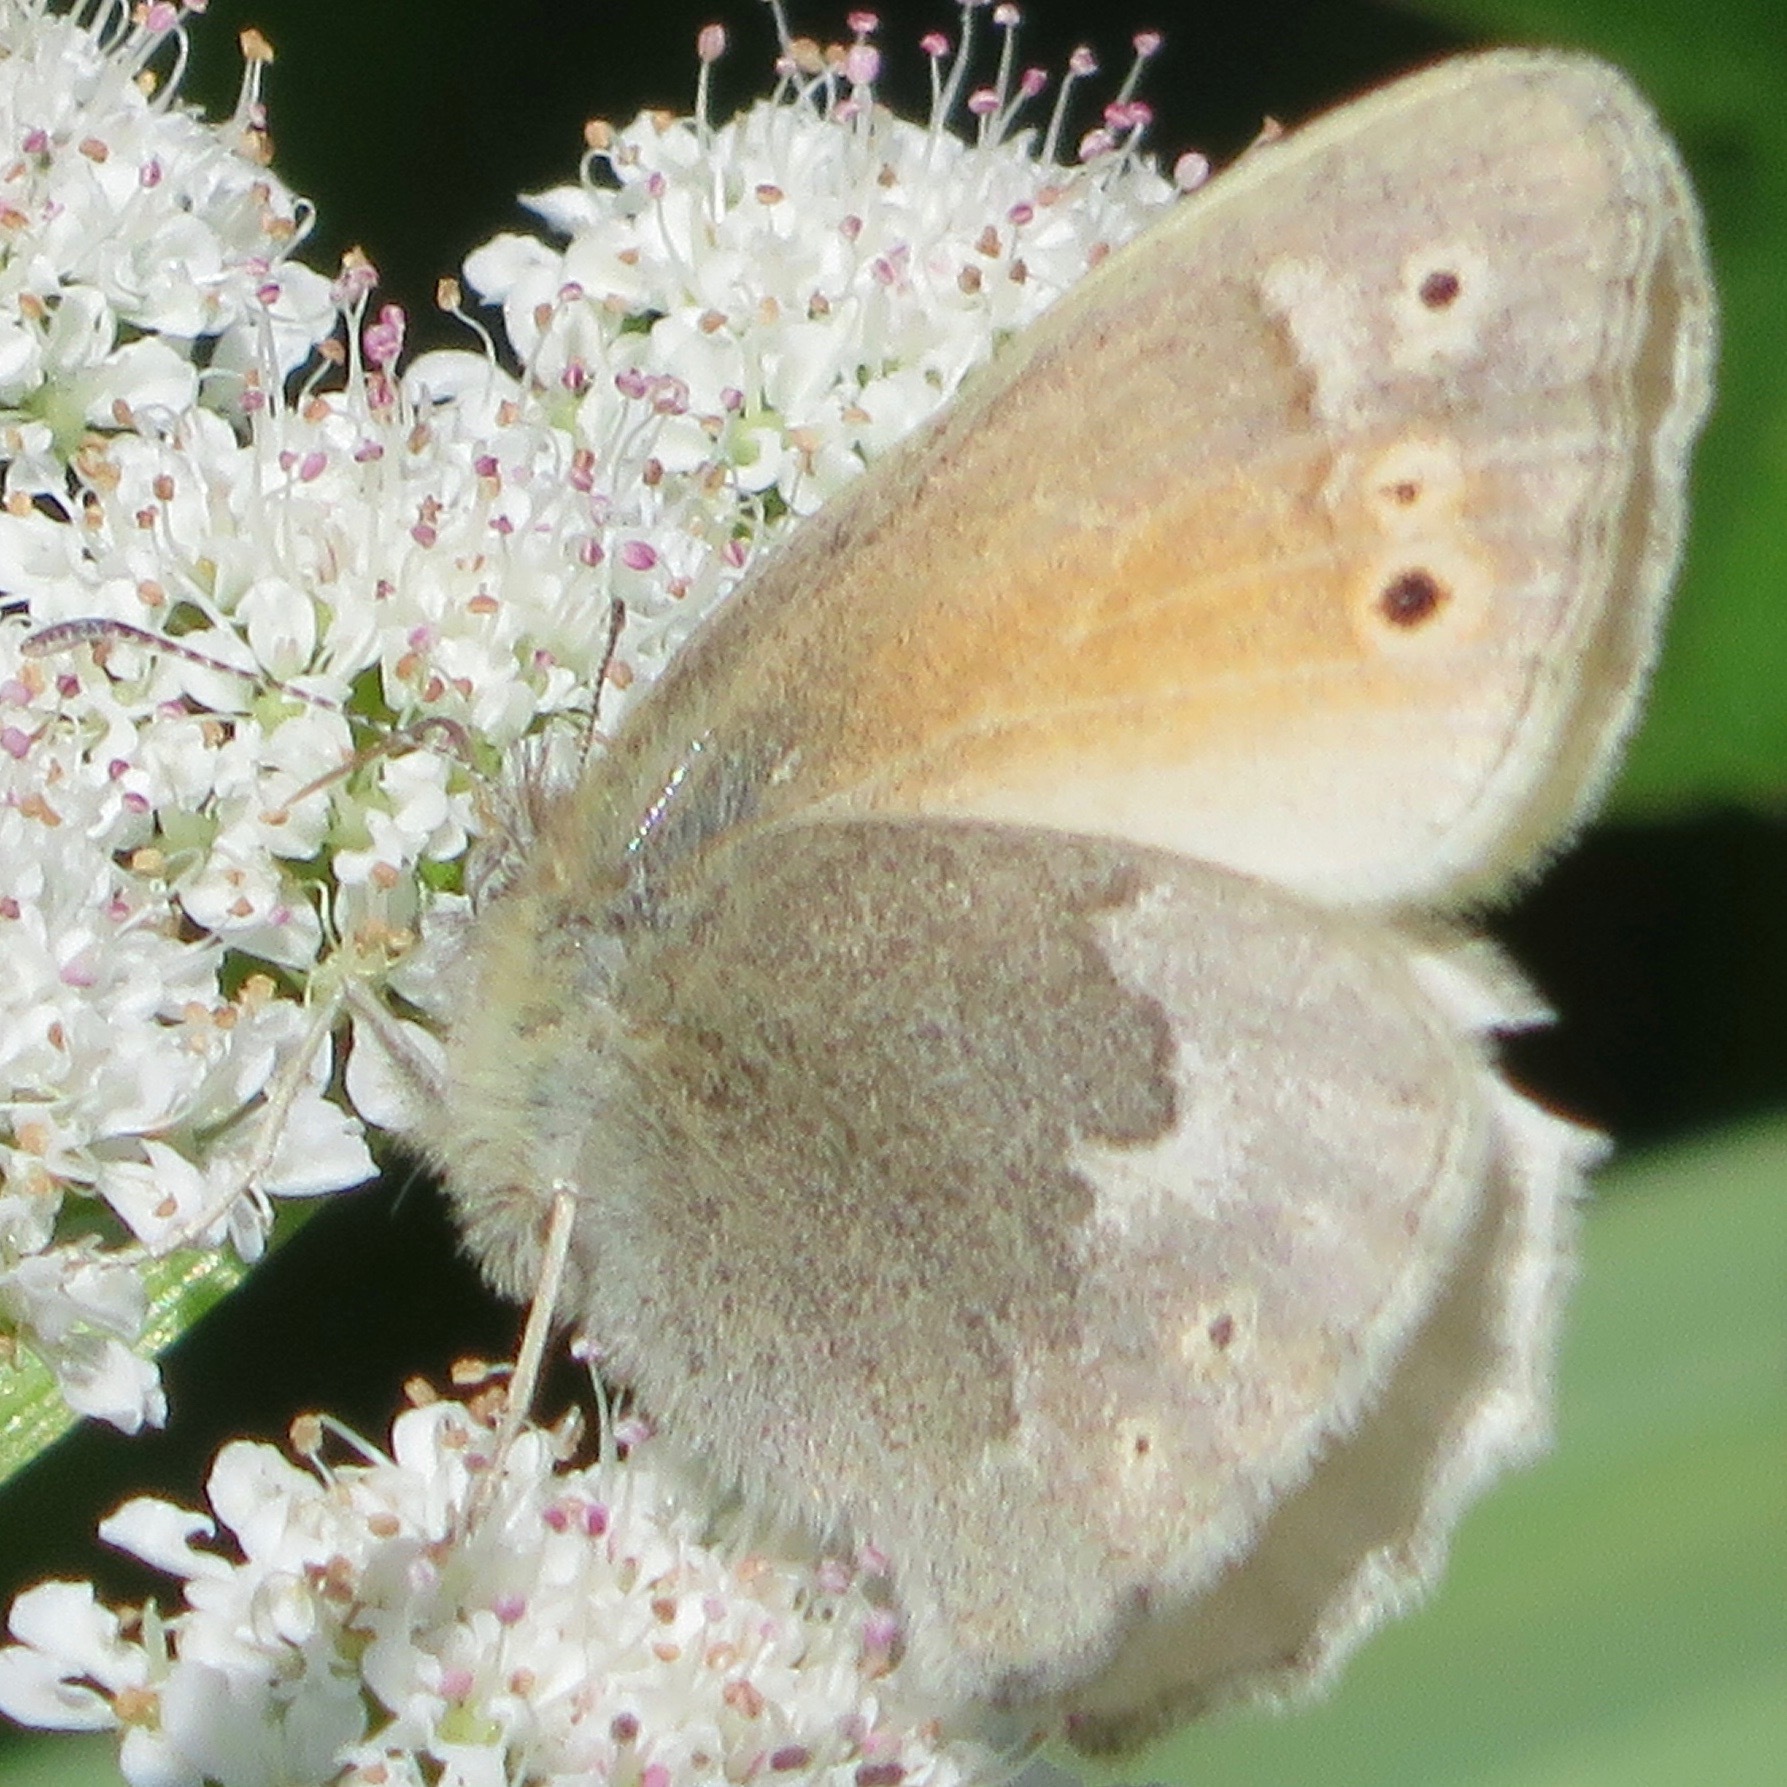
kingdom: Animalia
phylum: Arthropoda
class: Insecta
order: Lepidoptera
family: Nymphalidae
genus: Coenonympha
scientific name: Coenonympha california
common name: Common ringlet
